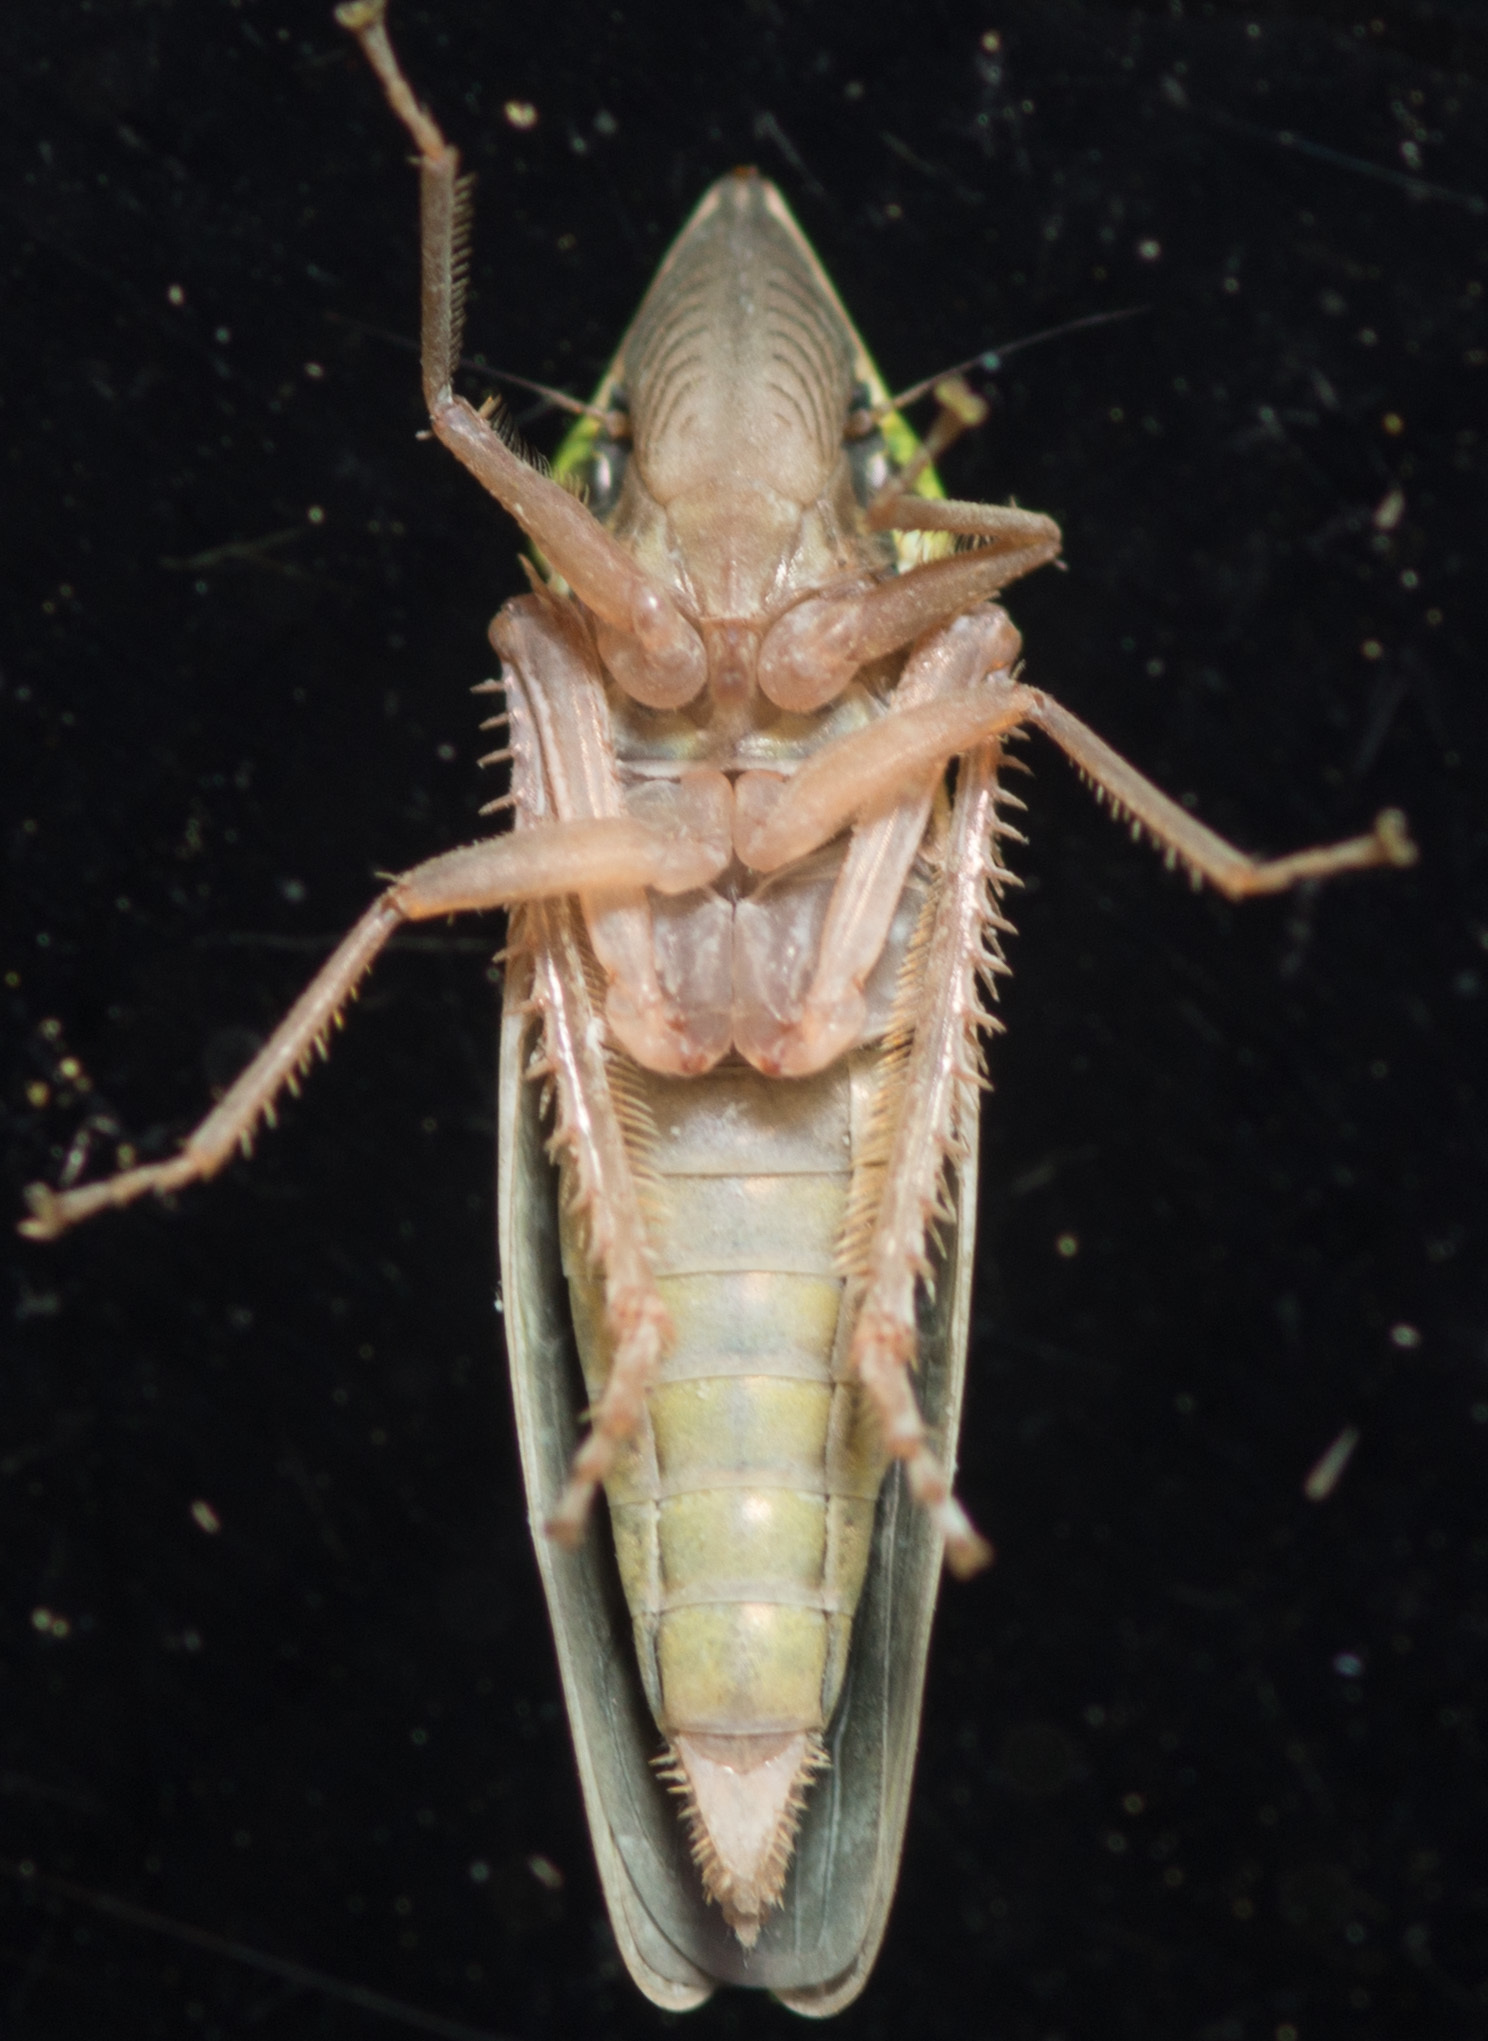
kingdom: Animalia
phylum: Arthropoda
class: Insecta
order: Hemiptera
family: Cicadellidae
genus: Draeculacephala
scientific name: Draeculacephala navicula
